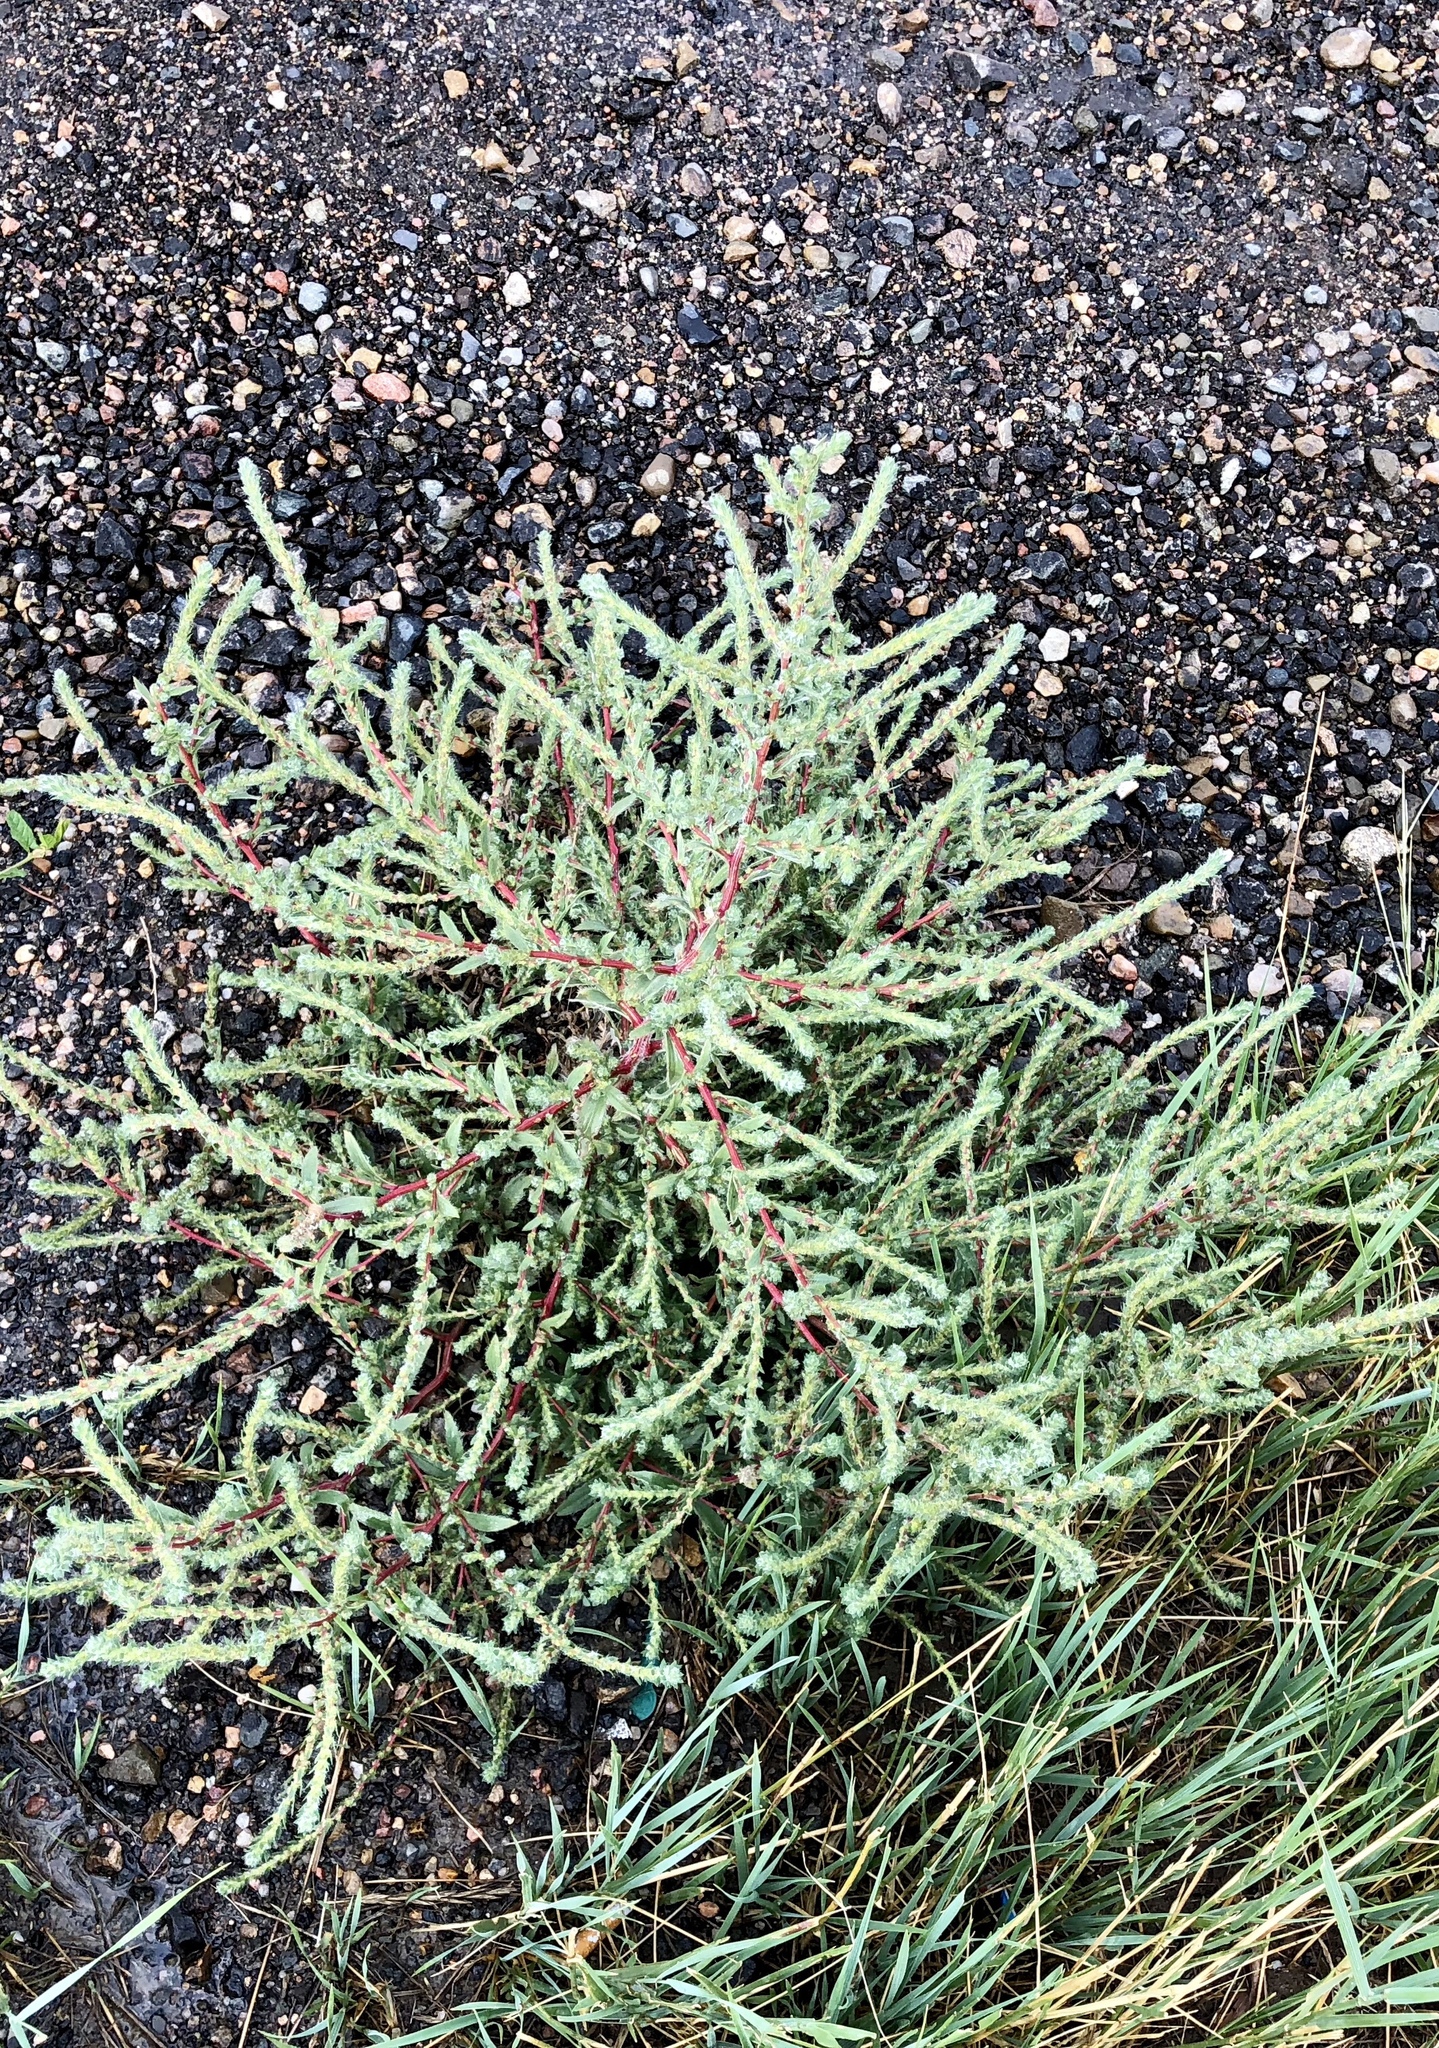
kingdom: Plantae
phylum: Tracheophyta
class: Magnoliopsida
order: Caryophyllales
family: Amaranthaceae
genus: Bassia
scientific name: Bassia scoparia
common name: Belvedere
